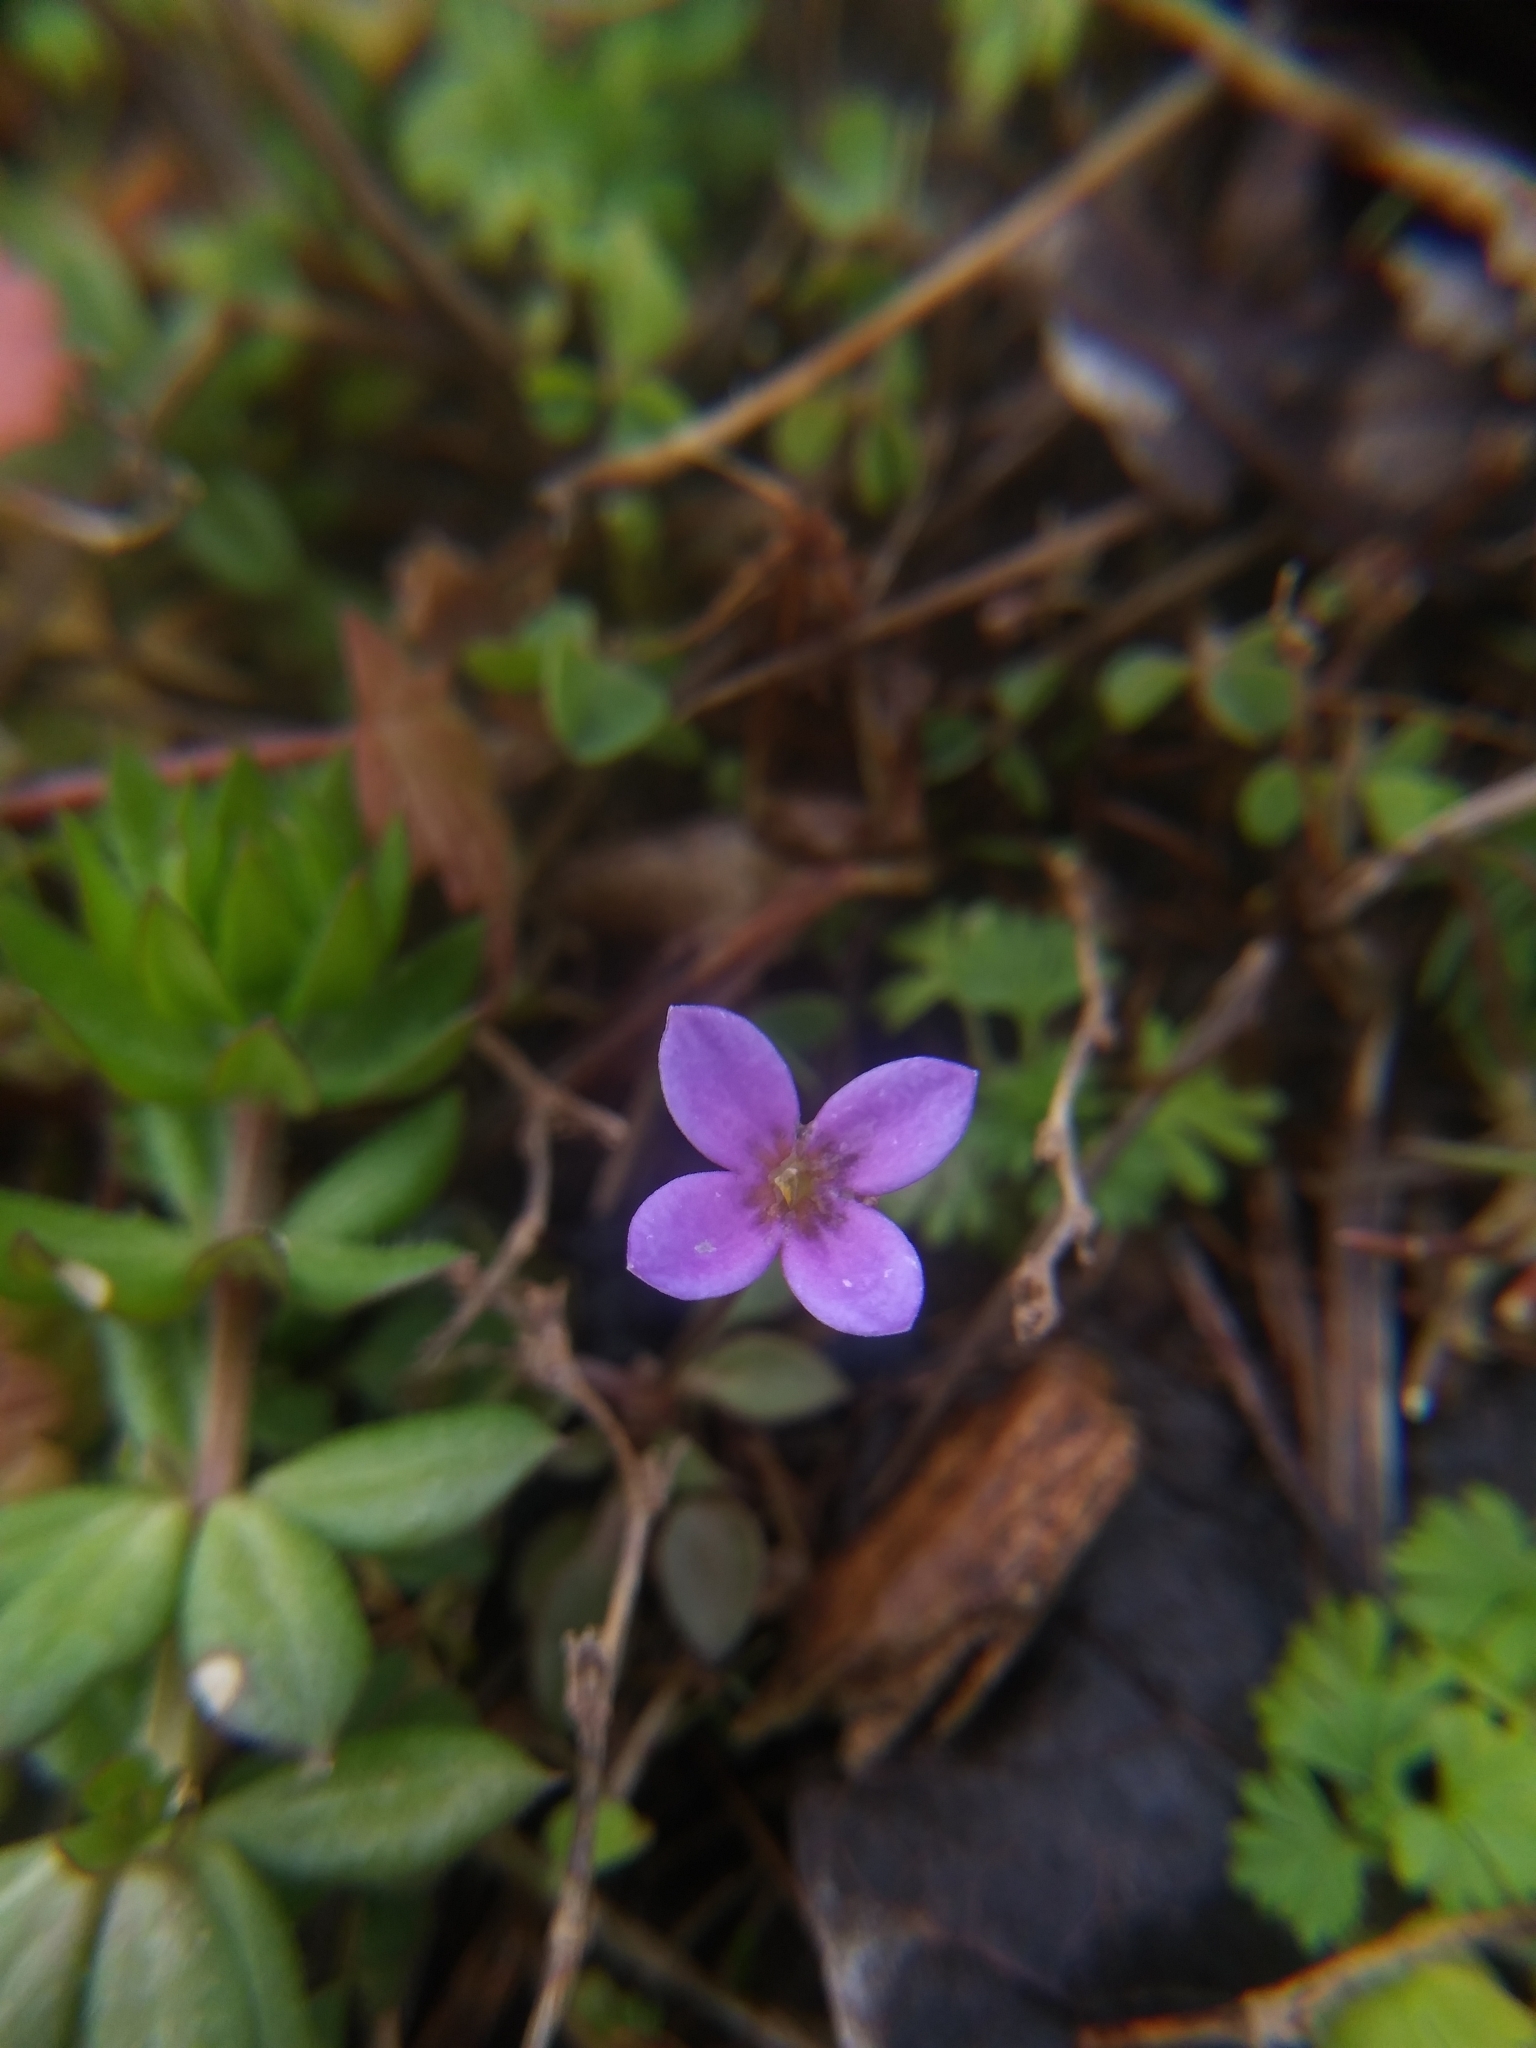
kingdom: Plantae
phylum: Tracheophyta
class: Magnoliopsida
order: Gentianales
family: Rubiaceae
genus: Houstonia
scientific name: Houstonia pusilla
